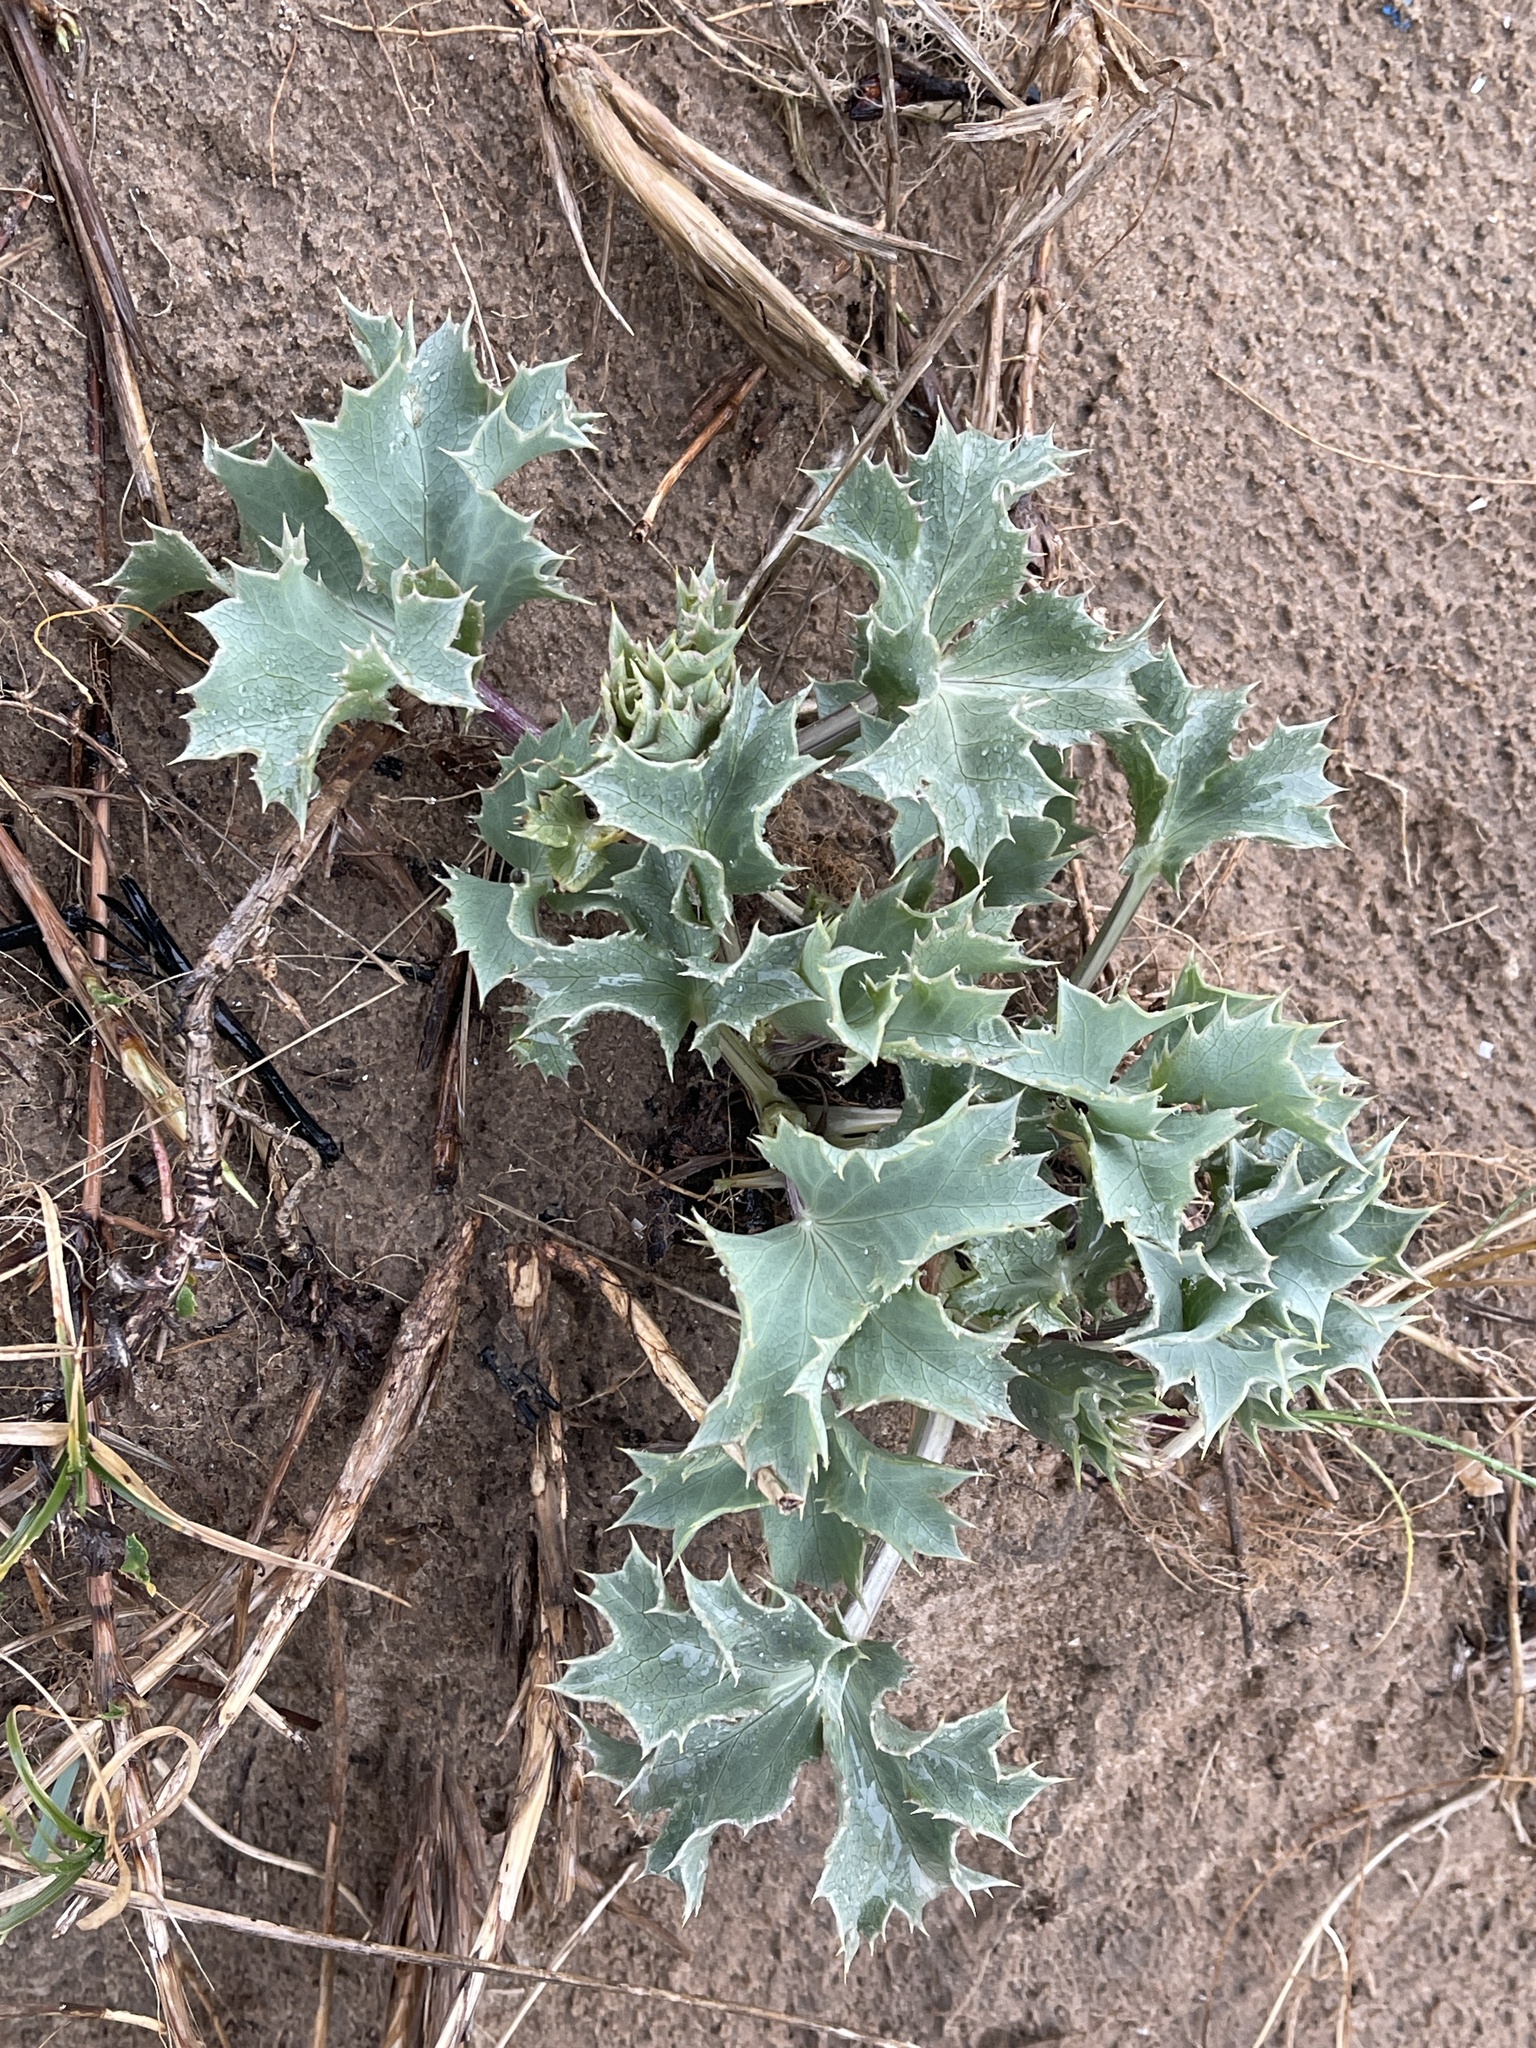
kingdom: Plantae
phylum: Tracheophyta
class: Magnoliopsida
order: Apiales
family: Apiaceae
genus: Eryngium
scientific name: Eryngium maritimum
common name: Sea-holly
